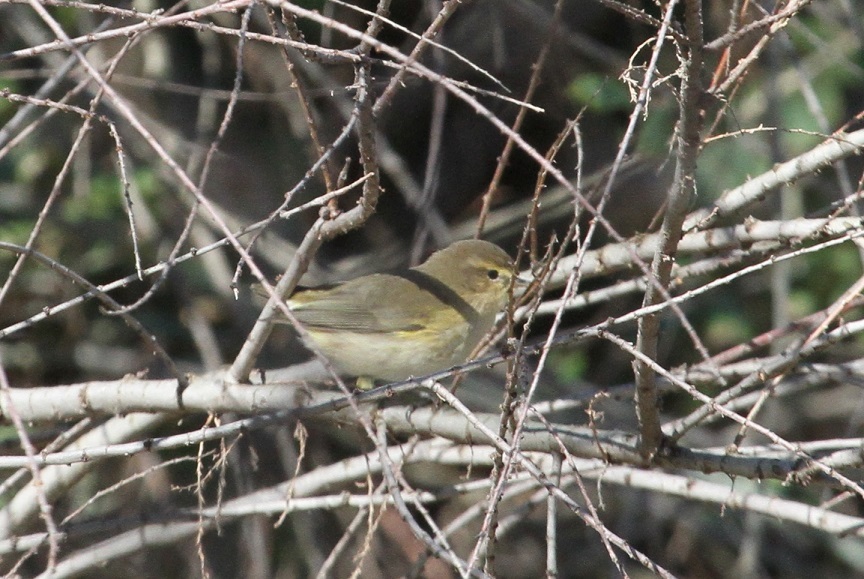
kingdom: Animalia
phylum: Chordata
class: Aves
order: Passeriformes
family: Phylloscopidae
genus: Phylloscopus
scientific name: Phylloscopus collybita
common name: Common chiffchaff
